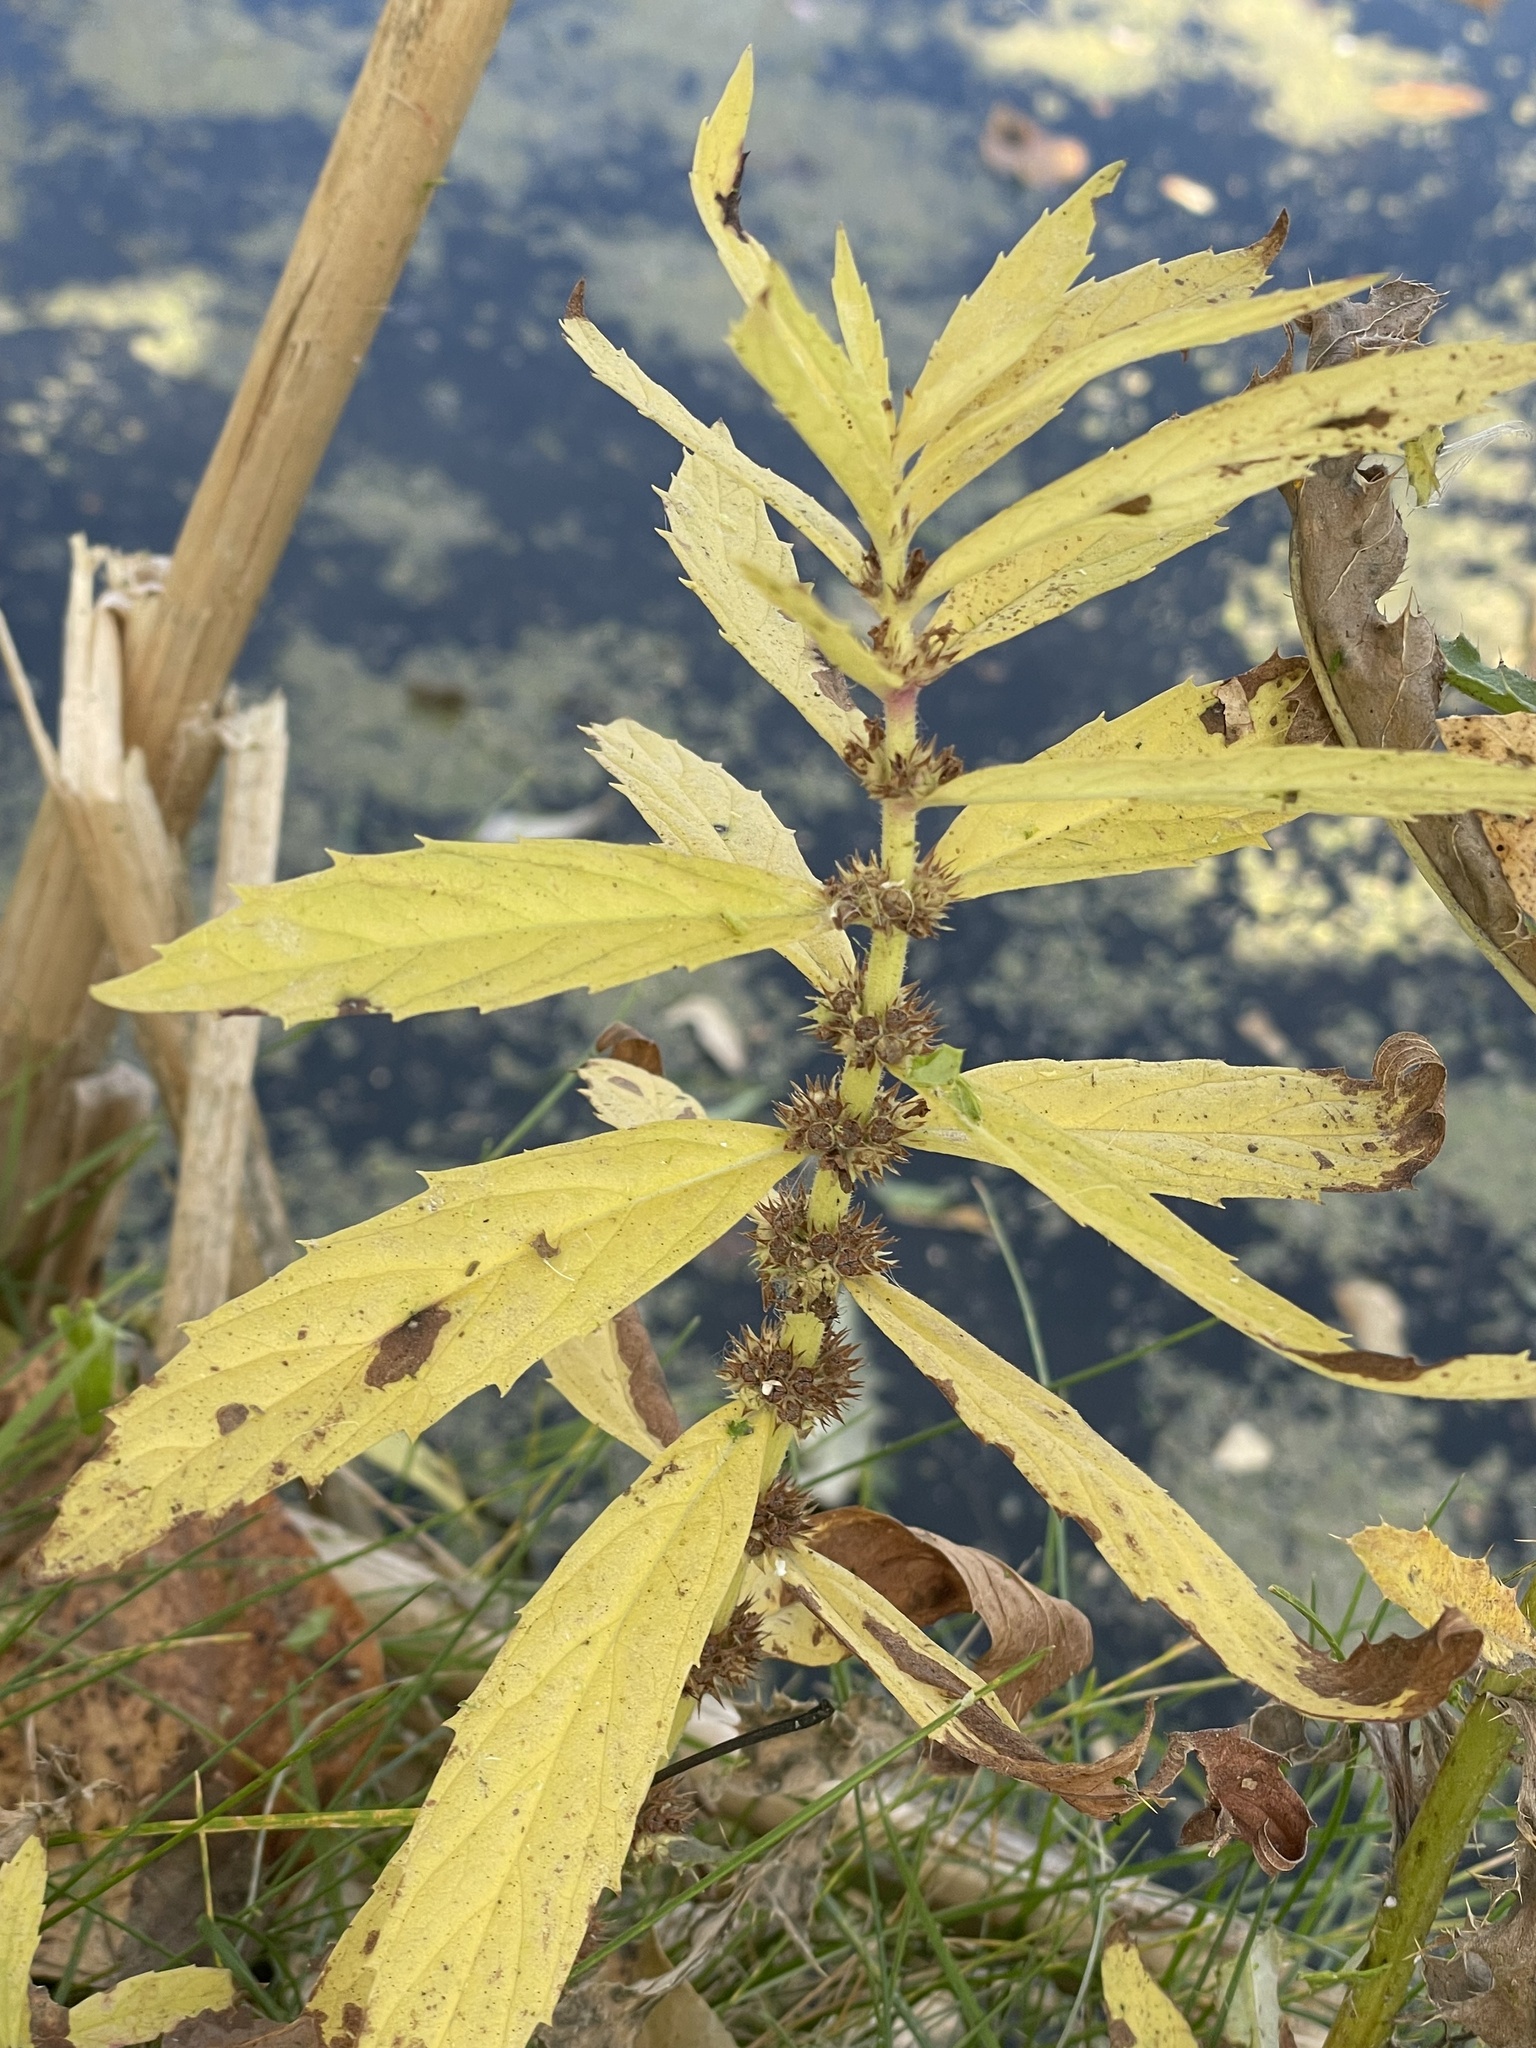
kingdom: Plantae
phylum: Tracheophyta
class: Magnoliopsida
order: Lamiales
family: Lamiaceae
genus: Lycopus
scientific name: Lycopus asper
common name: Rough water-horehound
